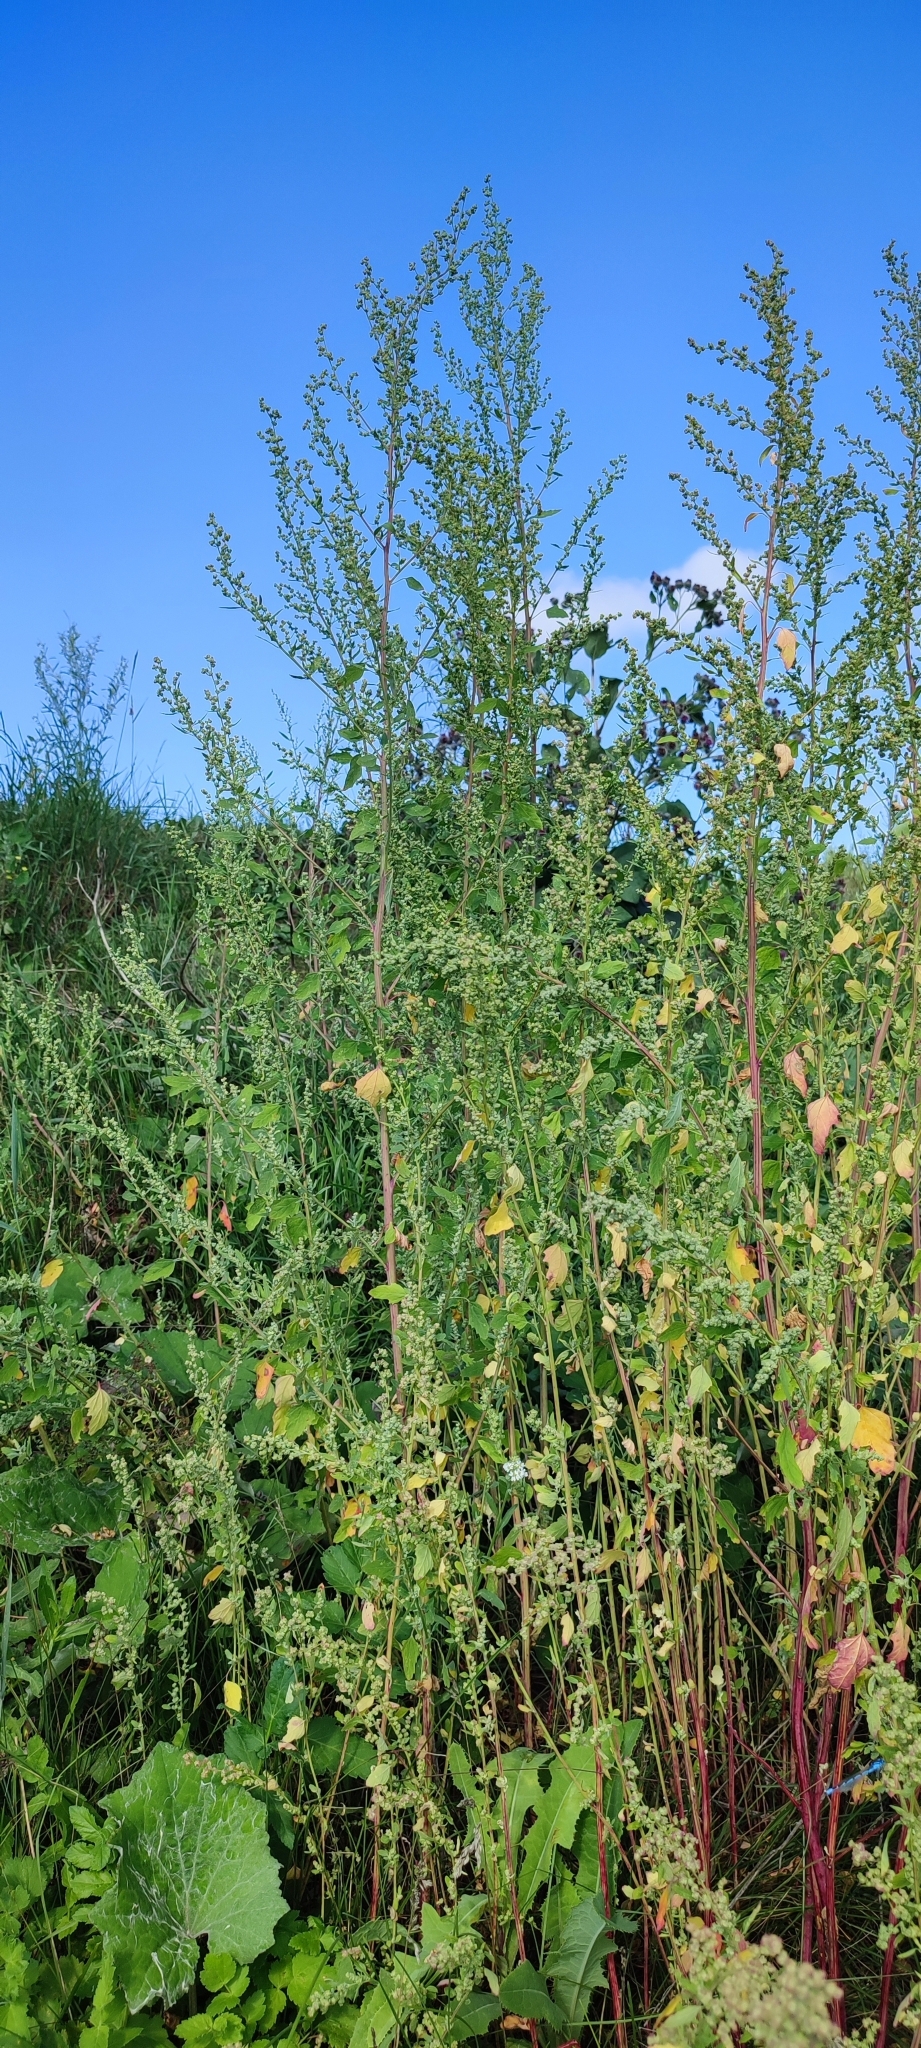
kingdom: Plantae
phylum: Tracheophyta
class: Magnoliopsida
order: Caryophyllales
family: Amaranthaceae
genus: Chenopodium
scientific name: Chenopodium album
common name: Fat-hen
